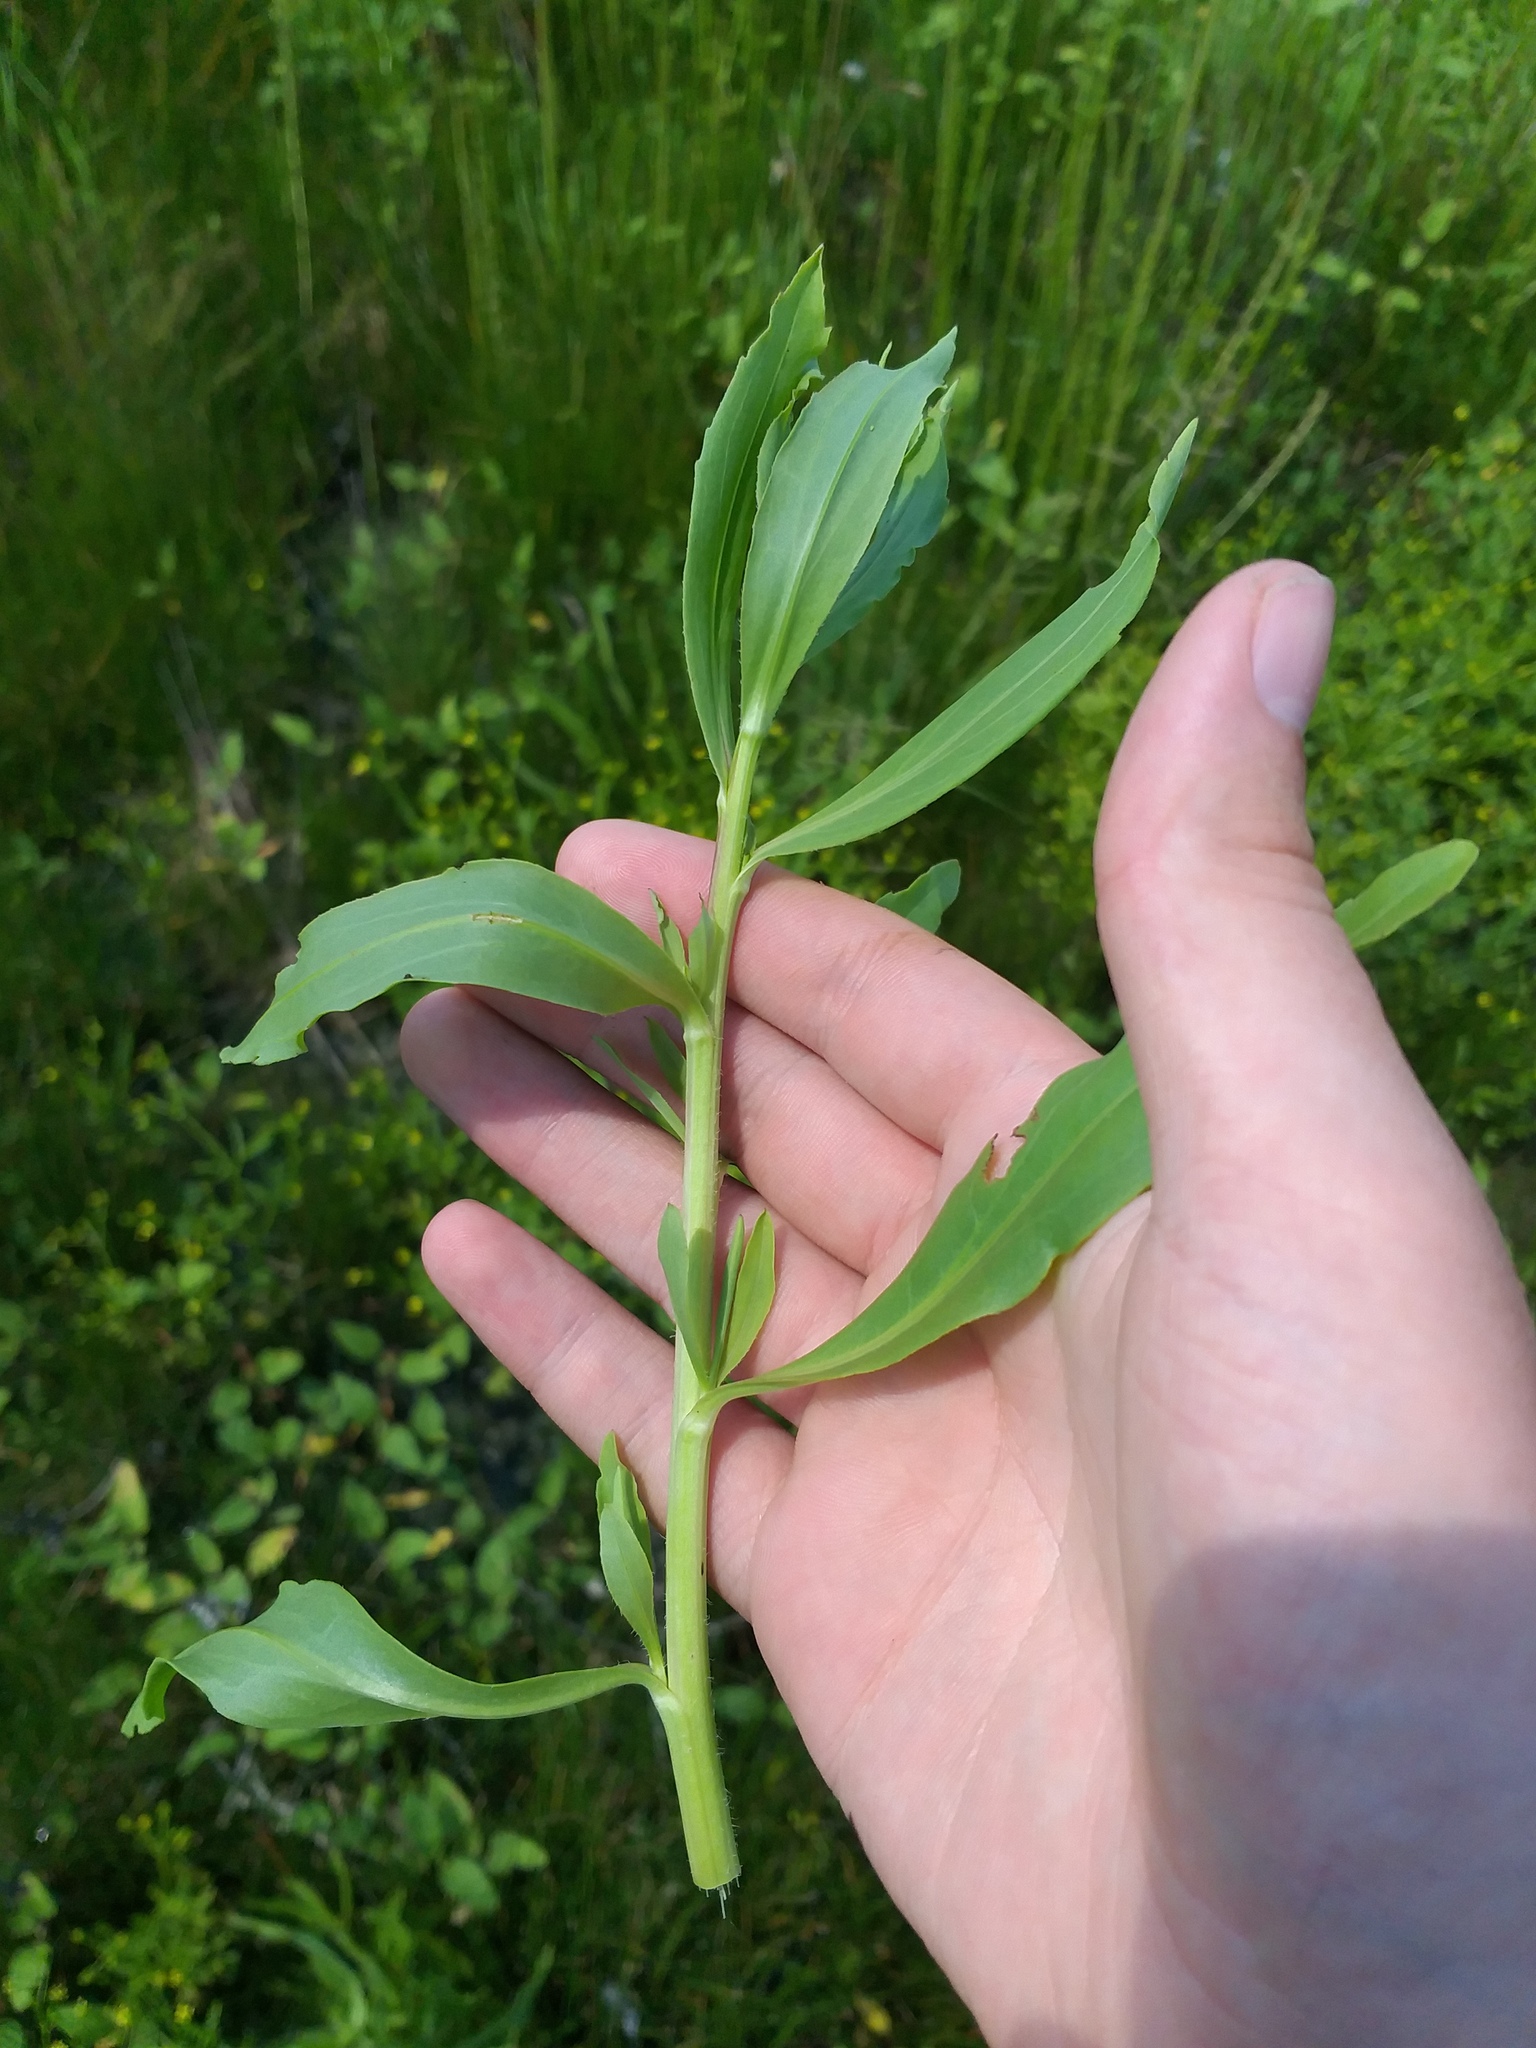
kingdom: Plantae
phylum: Tracheophyta
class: Magnoliopsida
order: Asterales
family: Asteraceae
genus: Tripolium
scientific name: Tripolium pannonicum
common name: Sea aster
